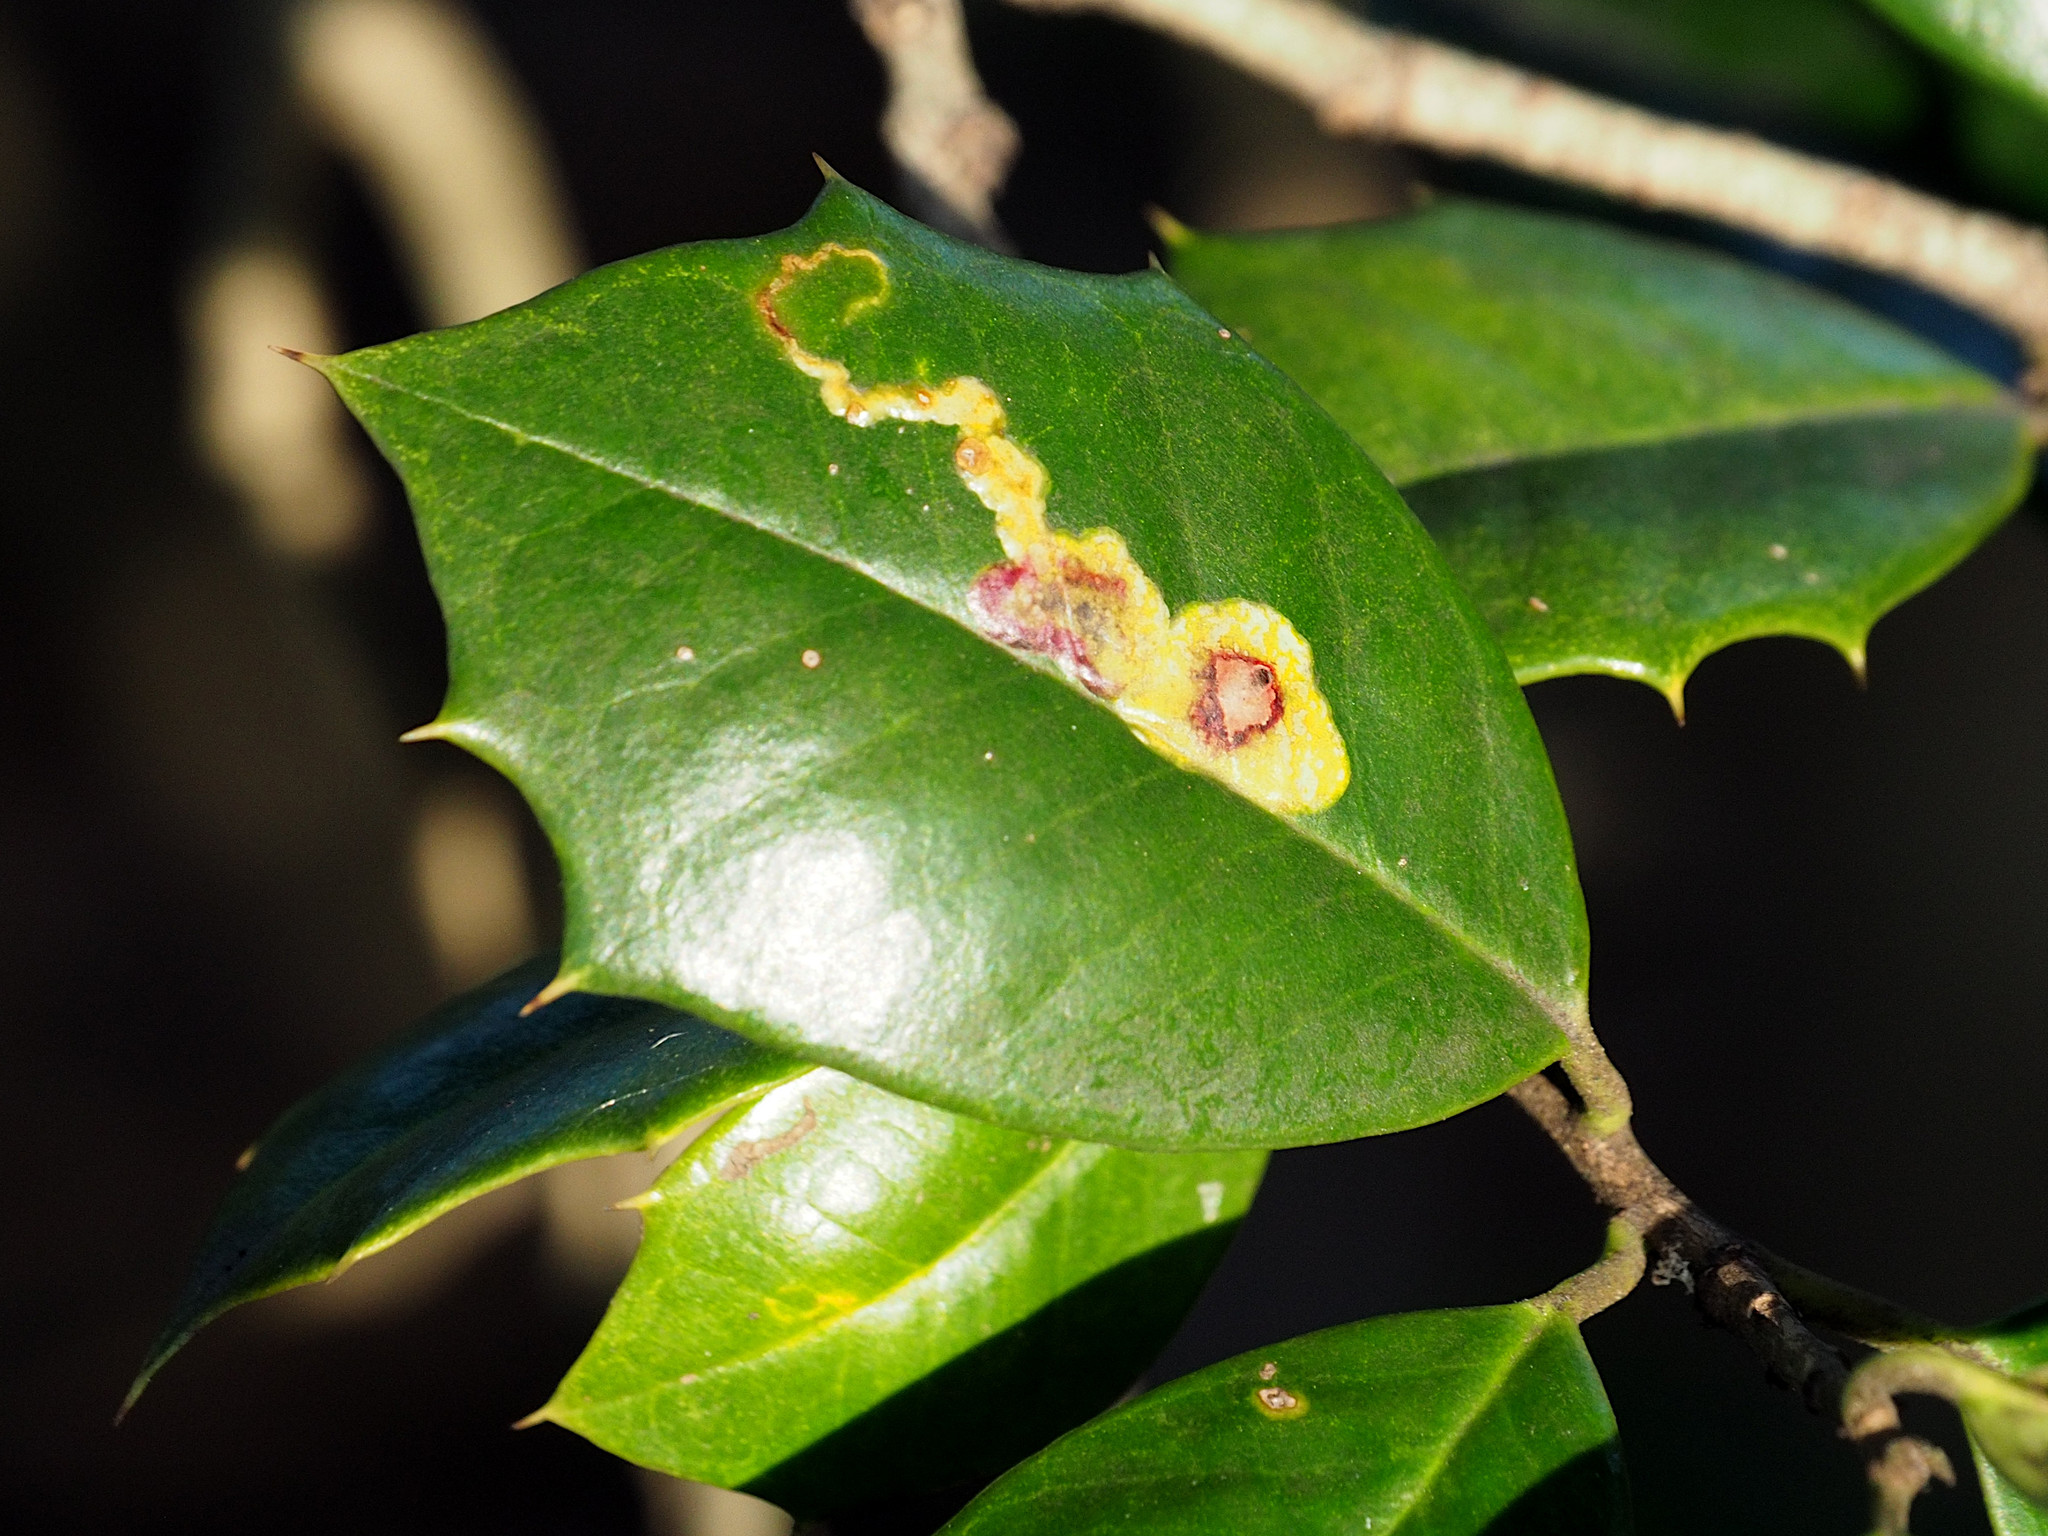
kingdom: Animalia
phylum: Arthropoda
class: Insecta
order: Diptera
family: Agromyzidae
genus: Phytomyza
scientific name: Phytomyza ilicicola
